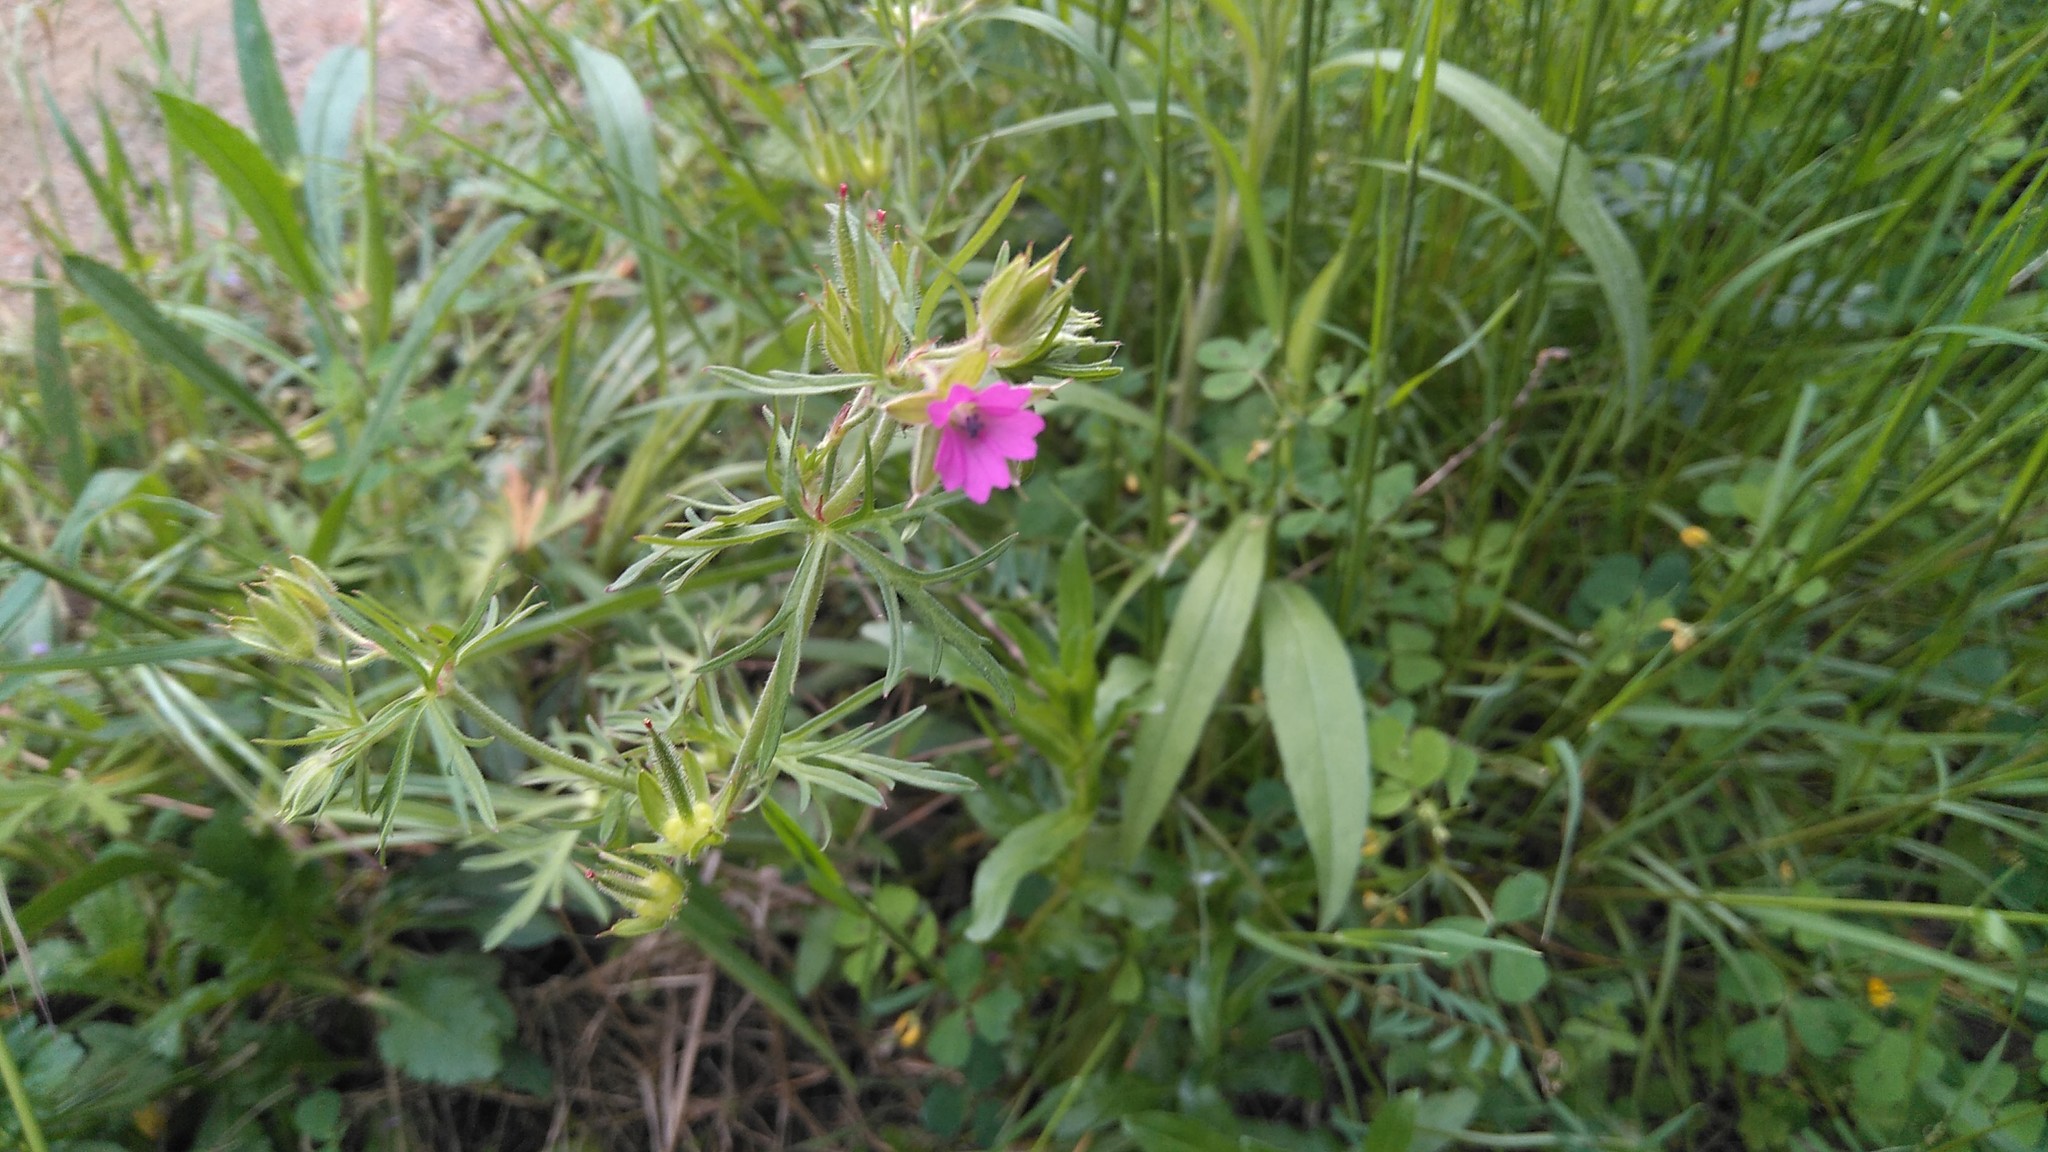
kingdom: Plantae
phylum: Tracheophyta
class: Magnoliopsida
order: Geraniales
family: Geraniaceae
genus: Geranium
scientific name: Geranium dissectum
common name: Cut-leaved crane's-bill
